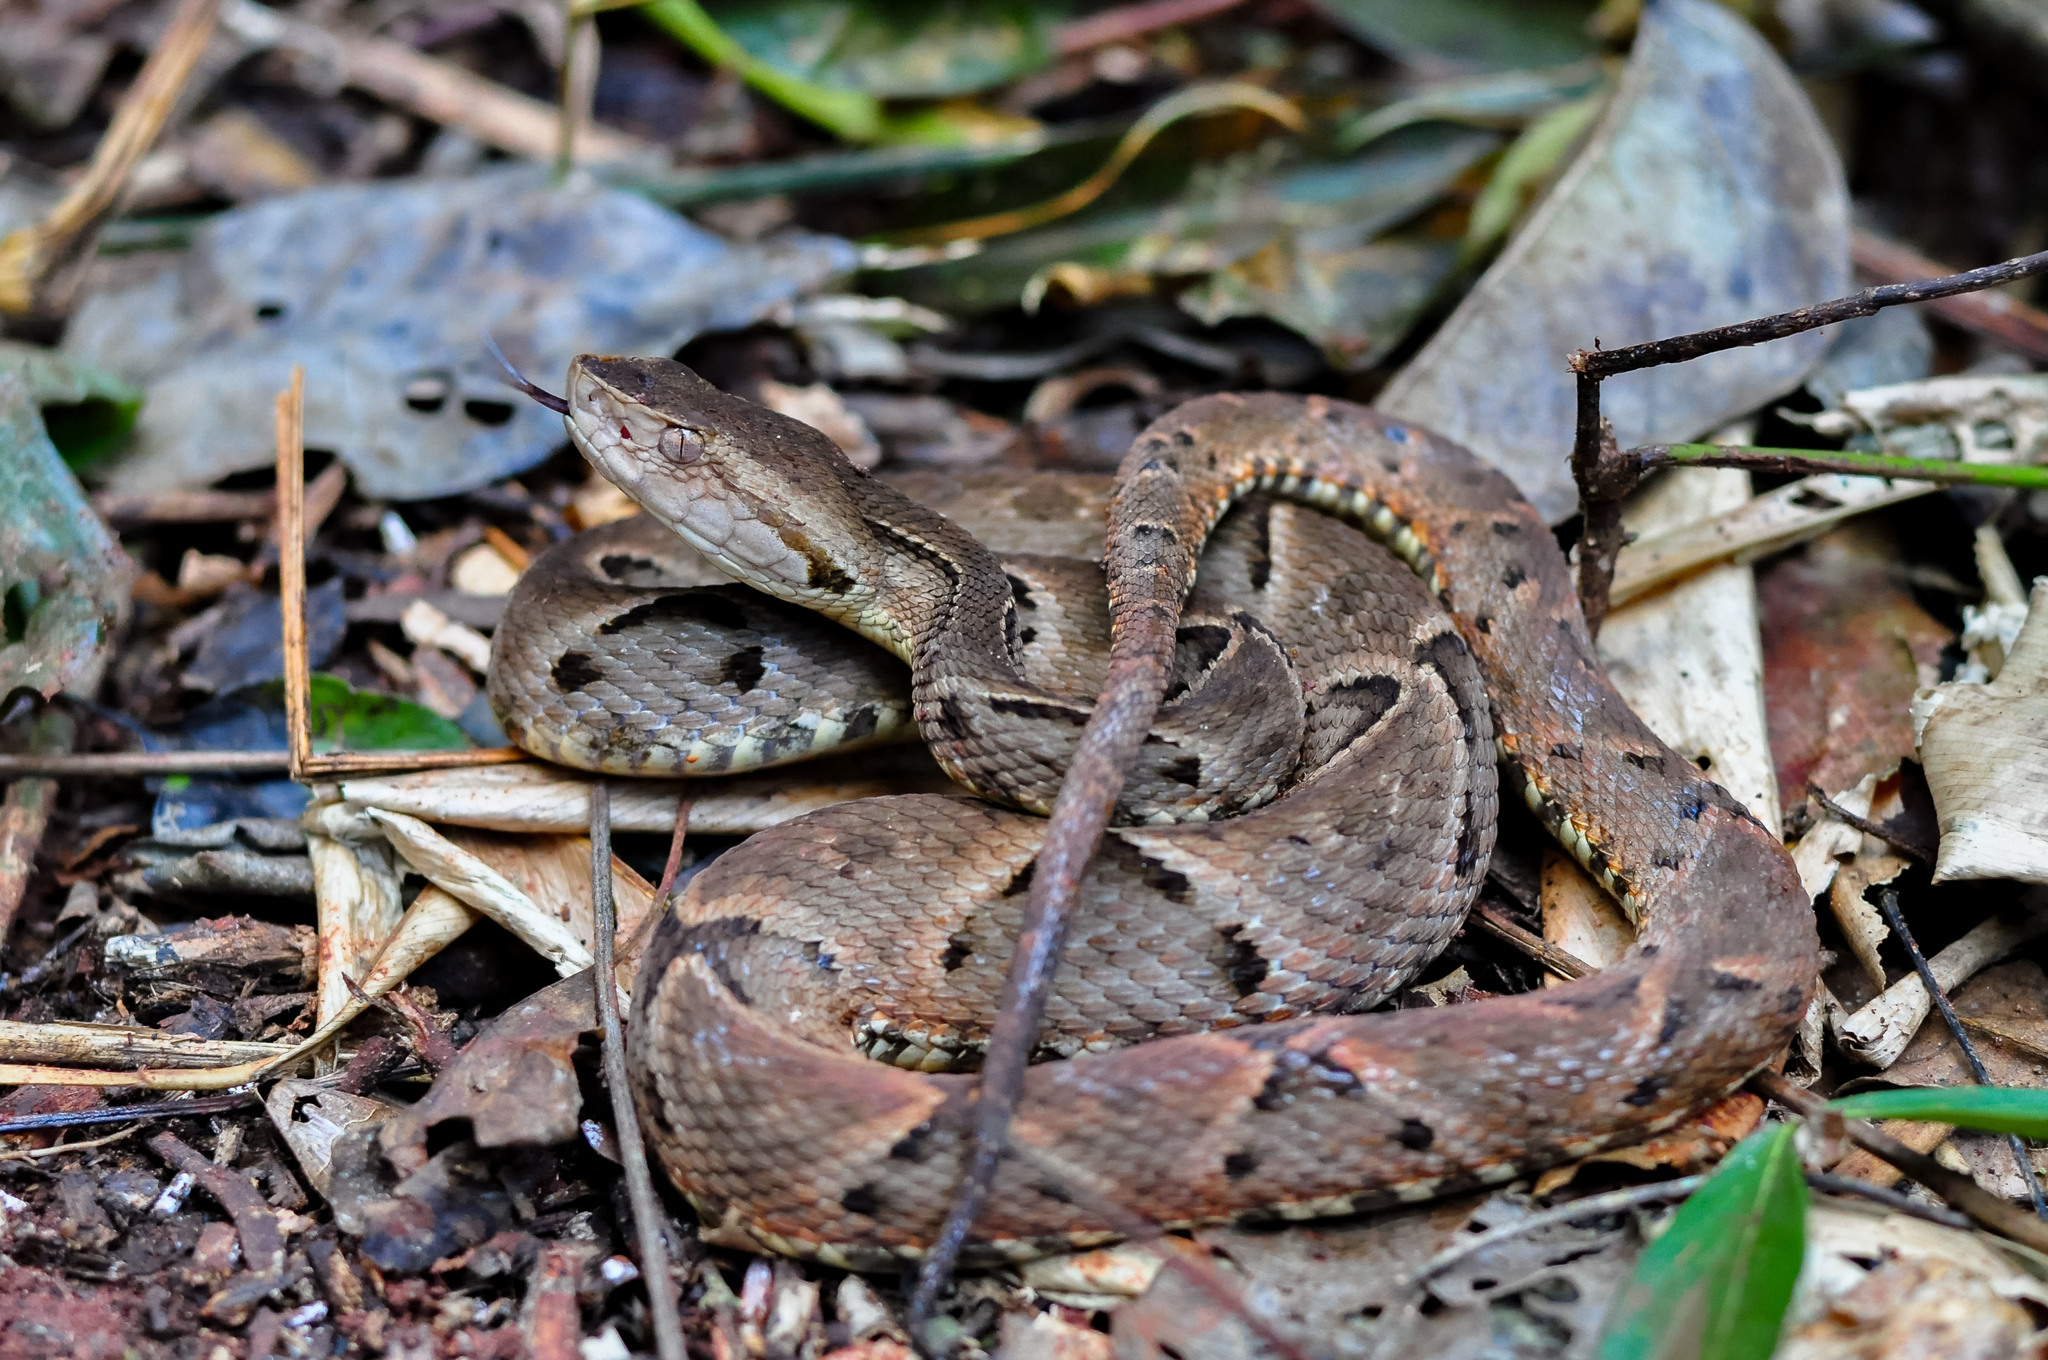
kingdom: Animalia
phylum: Chordata
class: Squamata
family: Viperidae
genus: Bothrops
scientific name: Bothrops moojeni
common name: Brazilian lancehead
